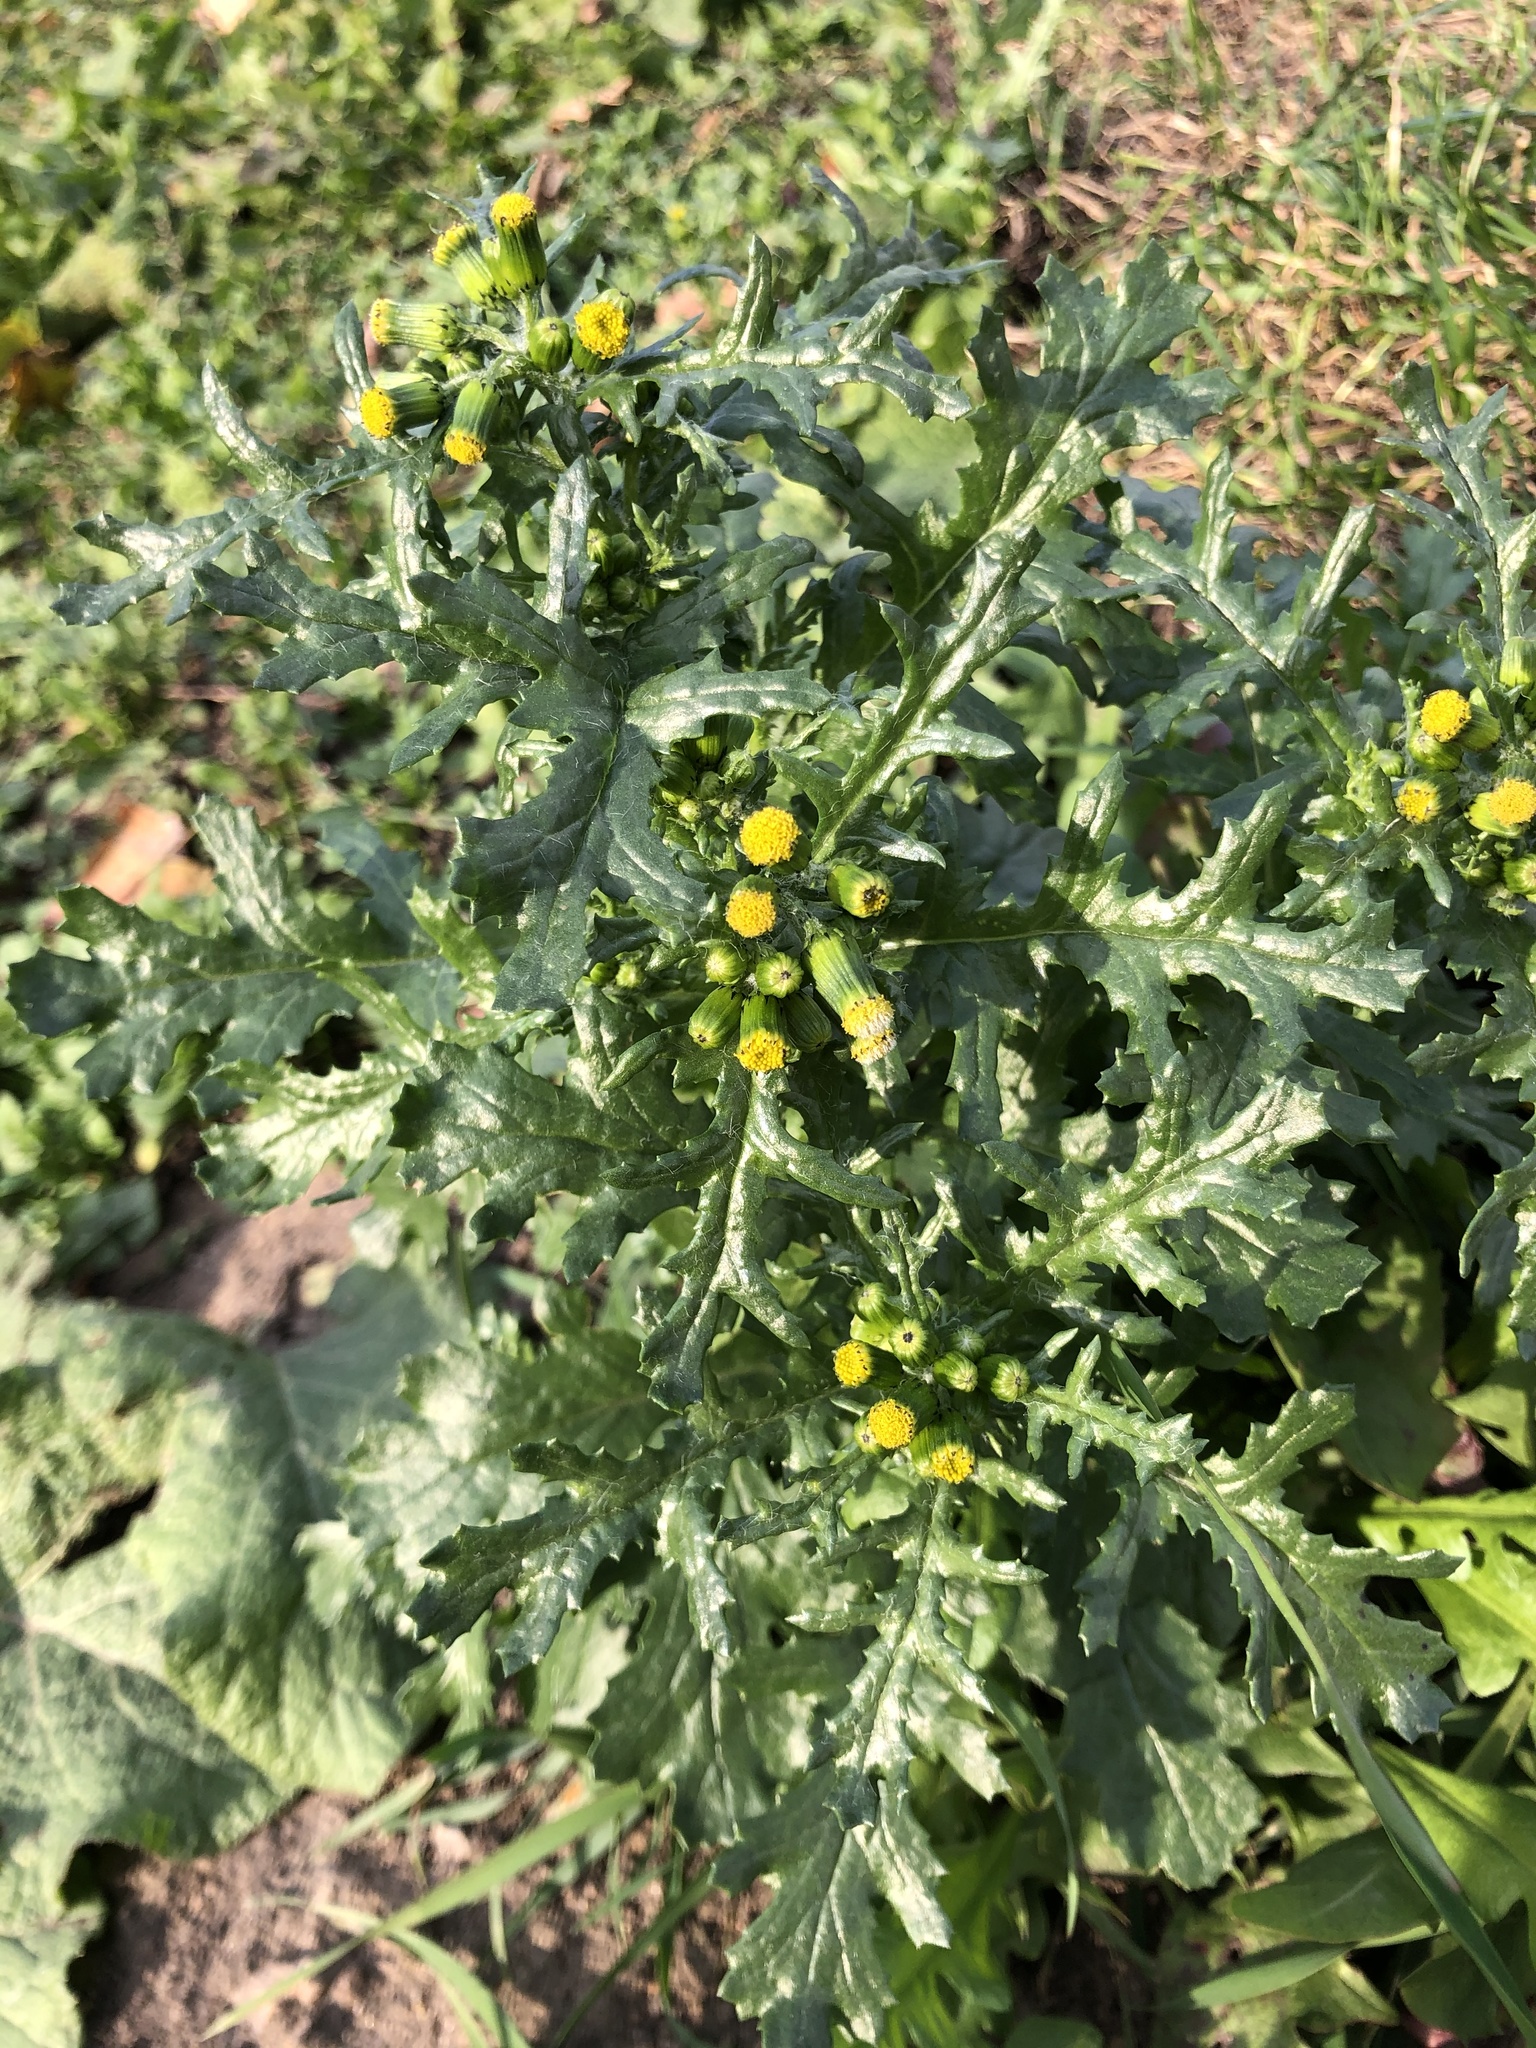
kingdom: Plantae
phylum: Tracheophyta
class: Magnoliopsida
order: Asterales
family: Asteraceae
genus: Senecio
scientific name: Senecio vulgaris
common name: Old-man-in-the-spring
